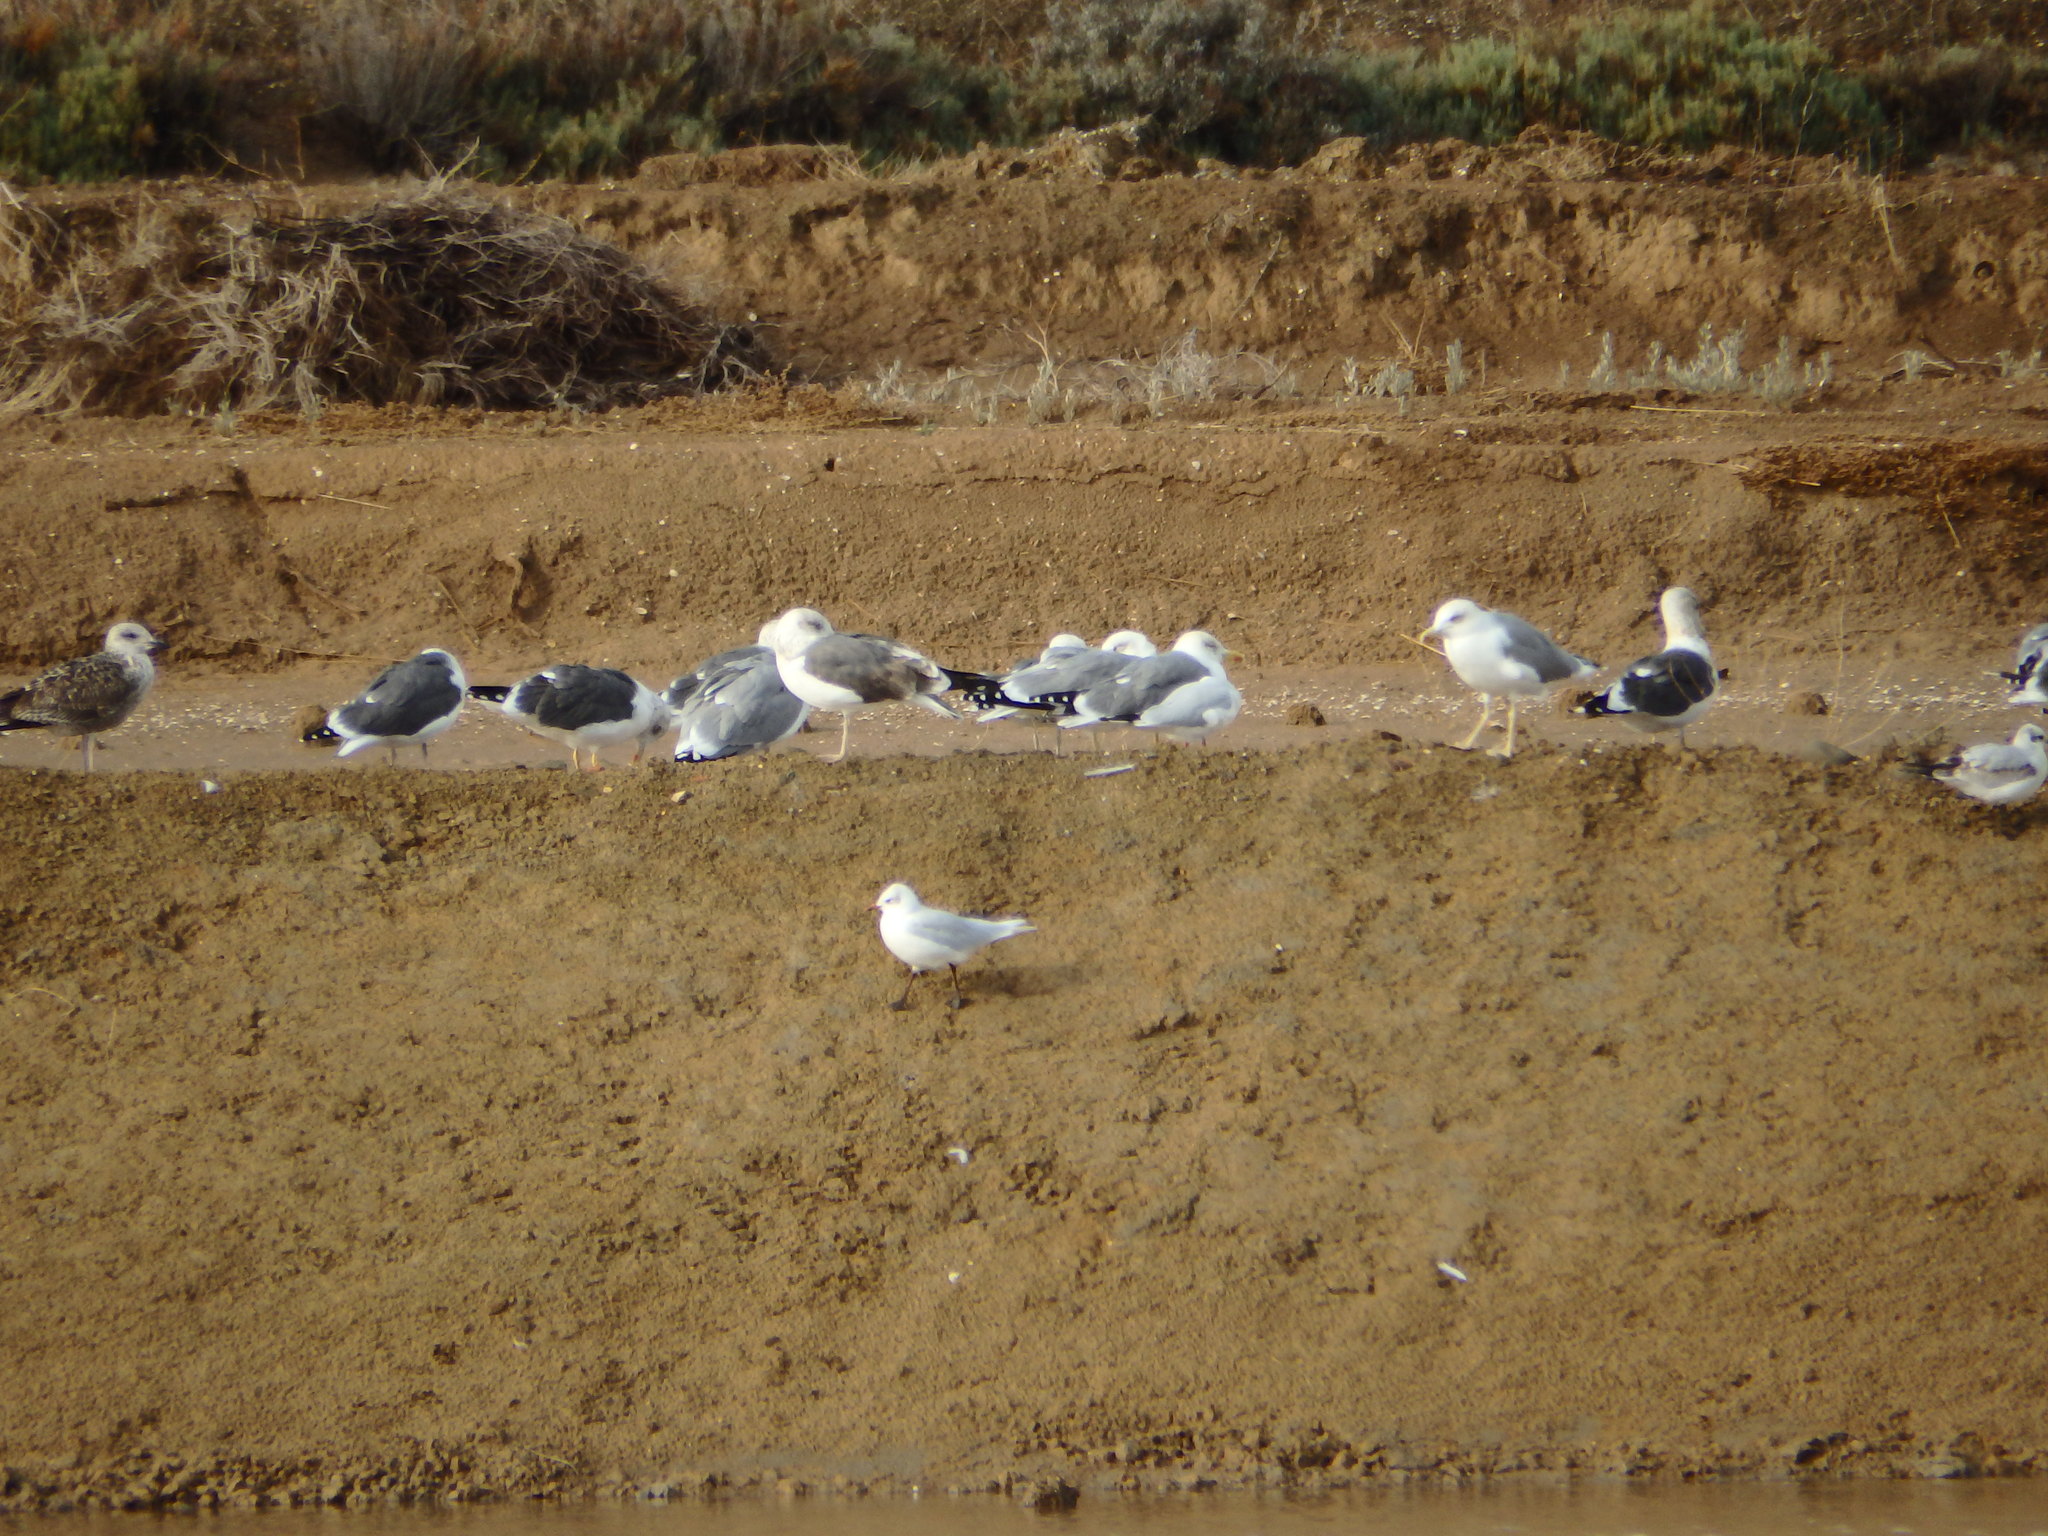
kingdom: Animalia
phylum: Chordata
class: Aves
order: Charadriiformes
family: Laridae
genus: Larus
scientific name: Larus fuscus
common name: Lesser black-backed gull
